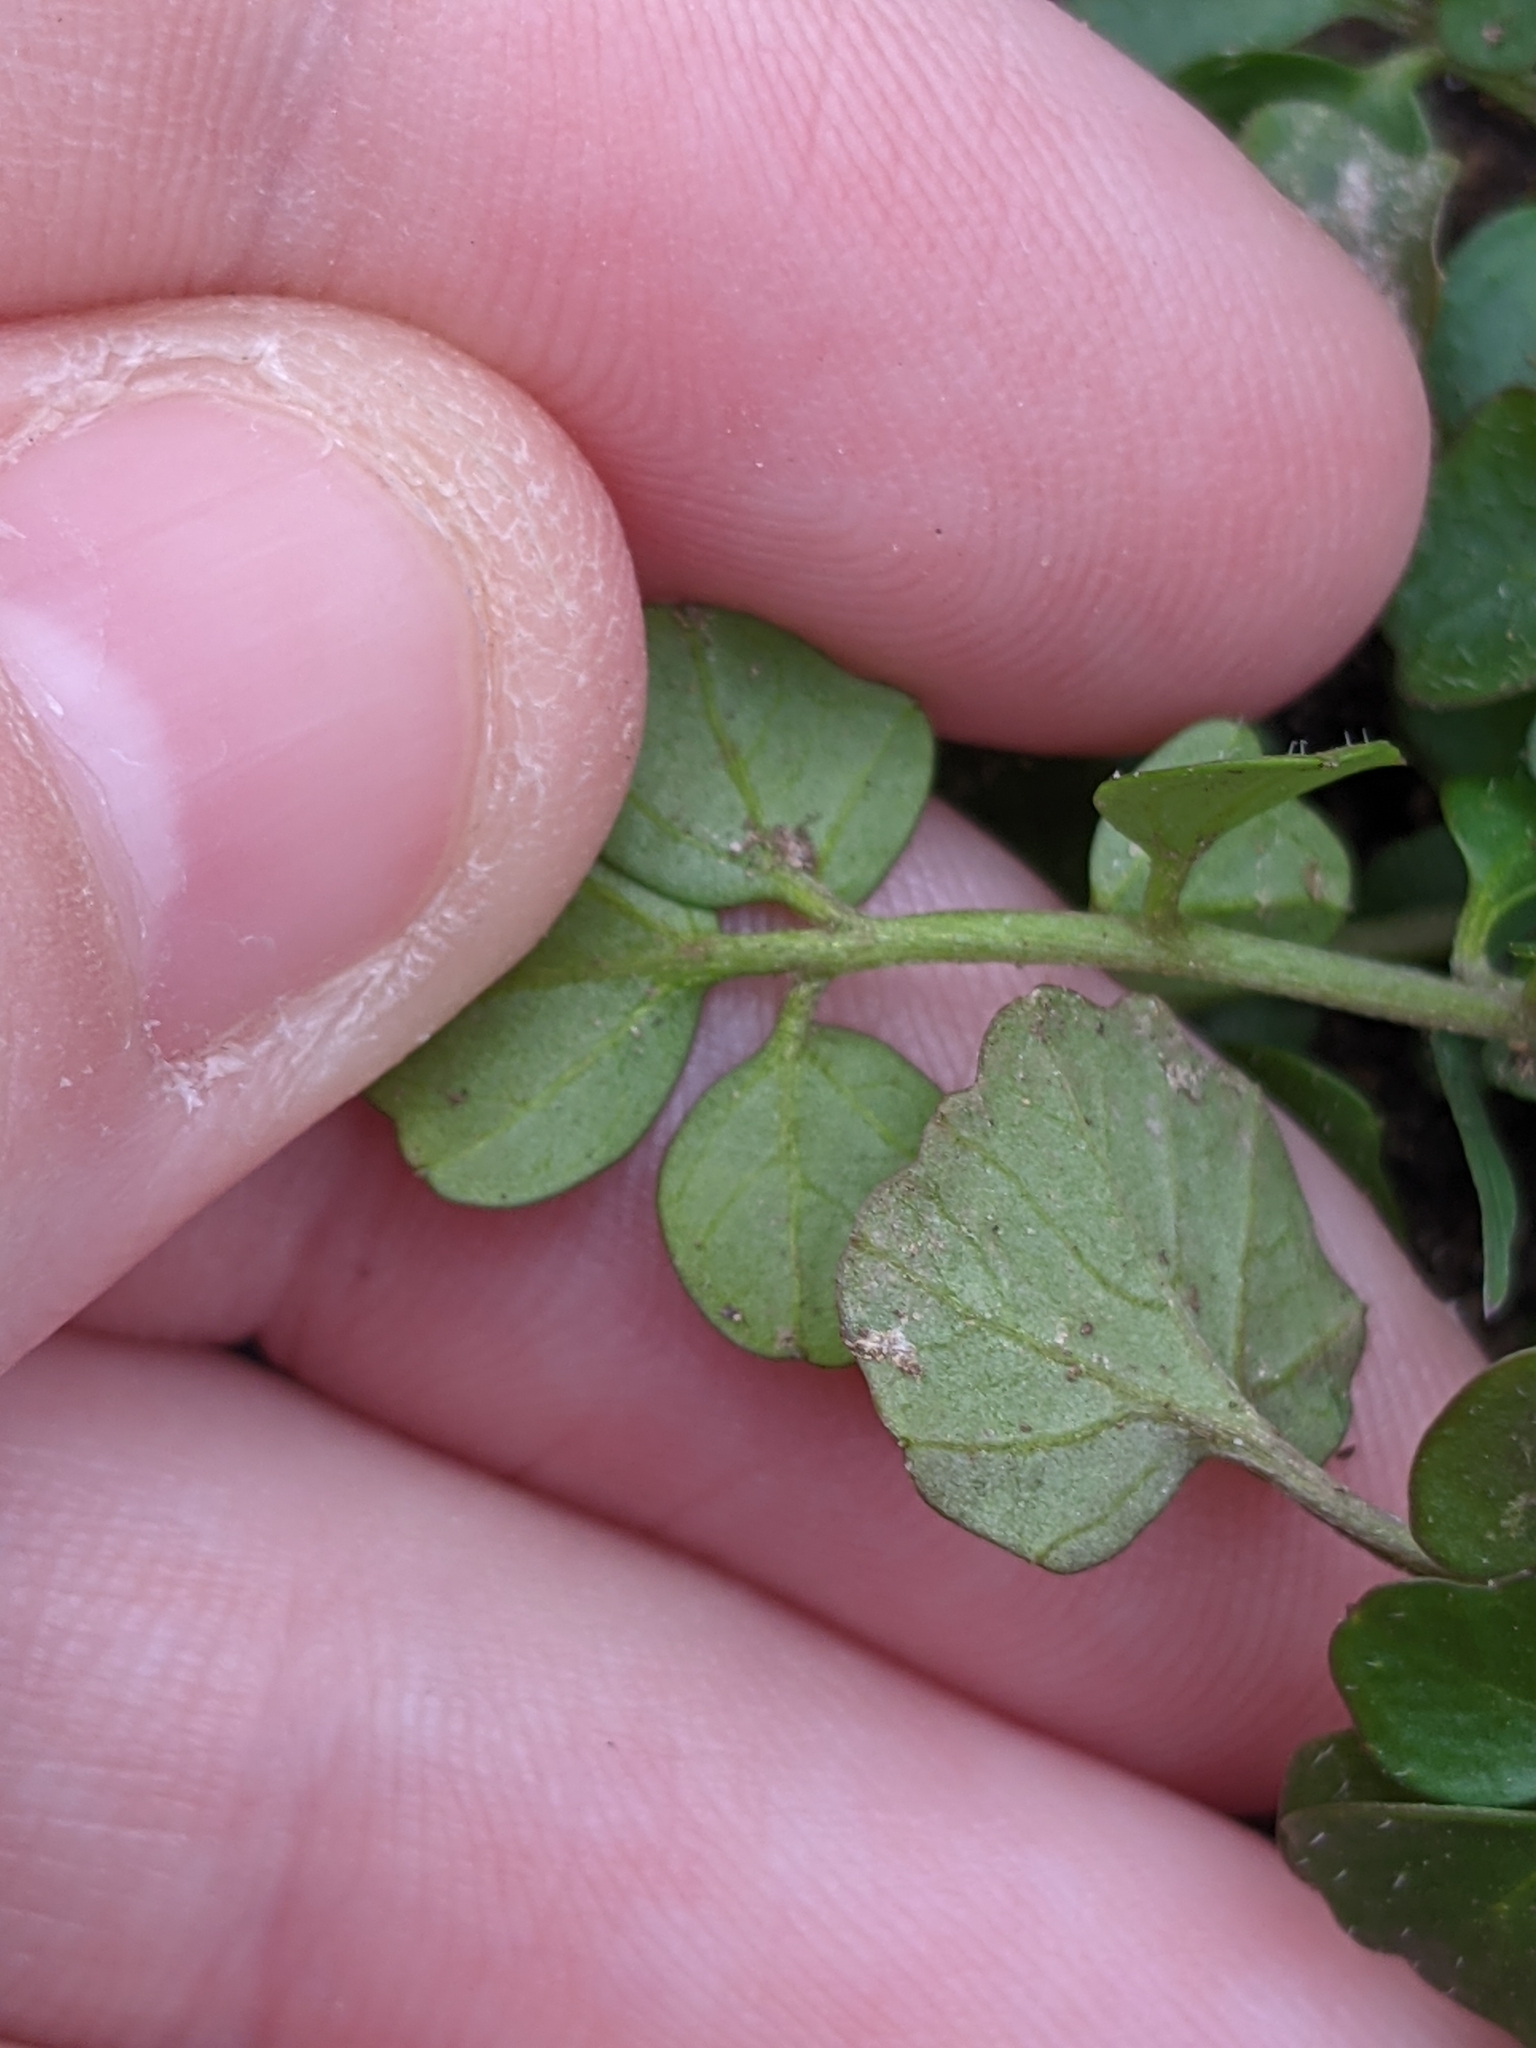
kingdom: Plantae
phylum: Tracheophyta
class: Magnoliopsida
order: Brassicales
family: Brassicaceae
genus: Cardamine
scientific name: Cardamine hirsuta
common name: Hairy bittercress
